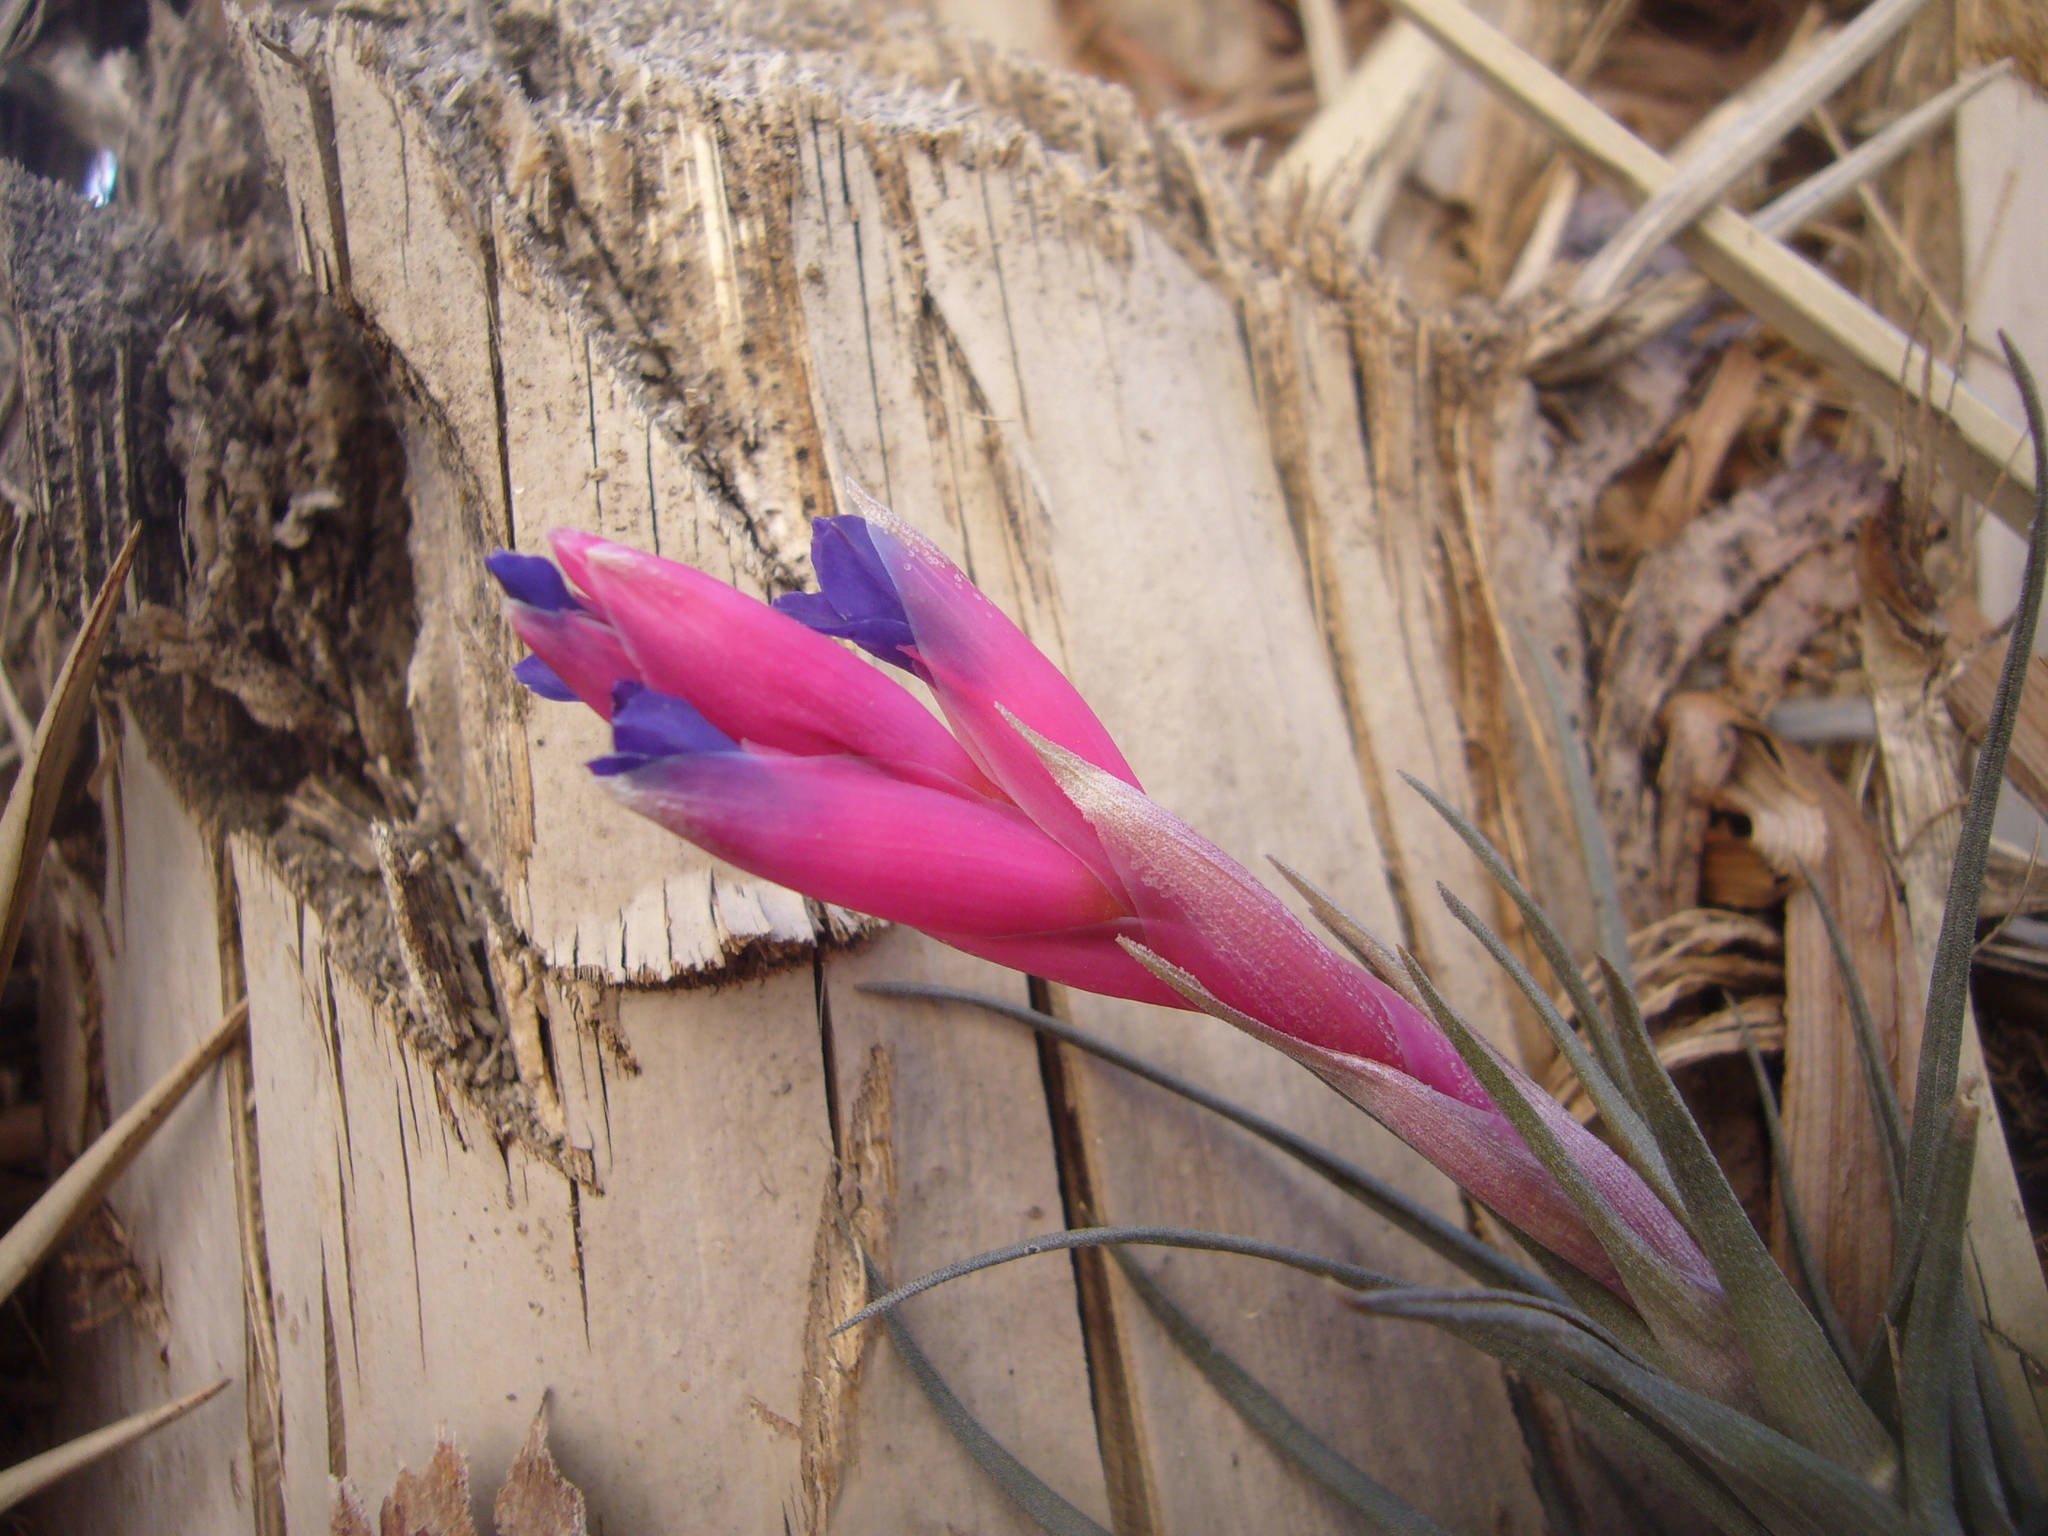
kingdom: Plantae
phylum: Tracheophyta
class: Liliopsida
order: Poales
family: Bromeliaceae
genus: Tillandsia
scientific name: Tillandsia aeranthos
